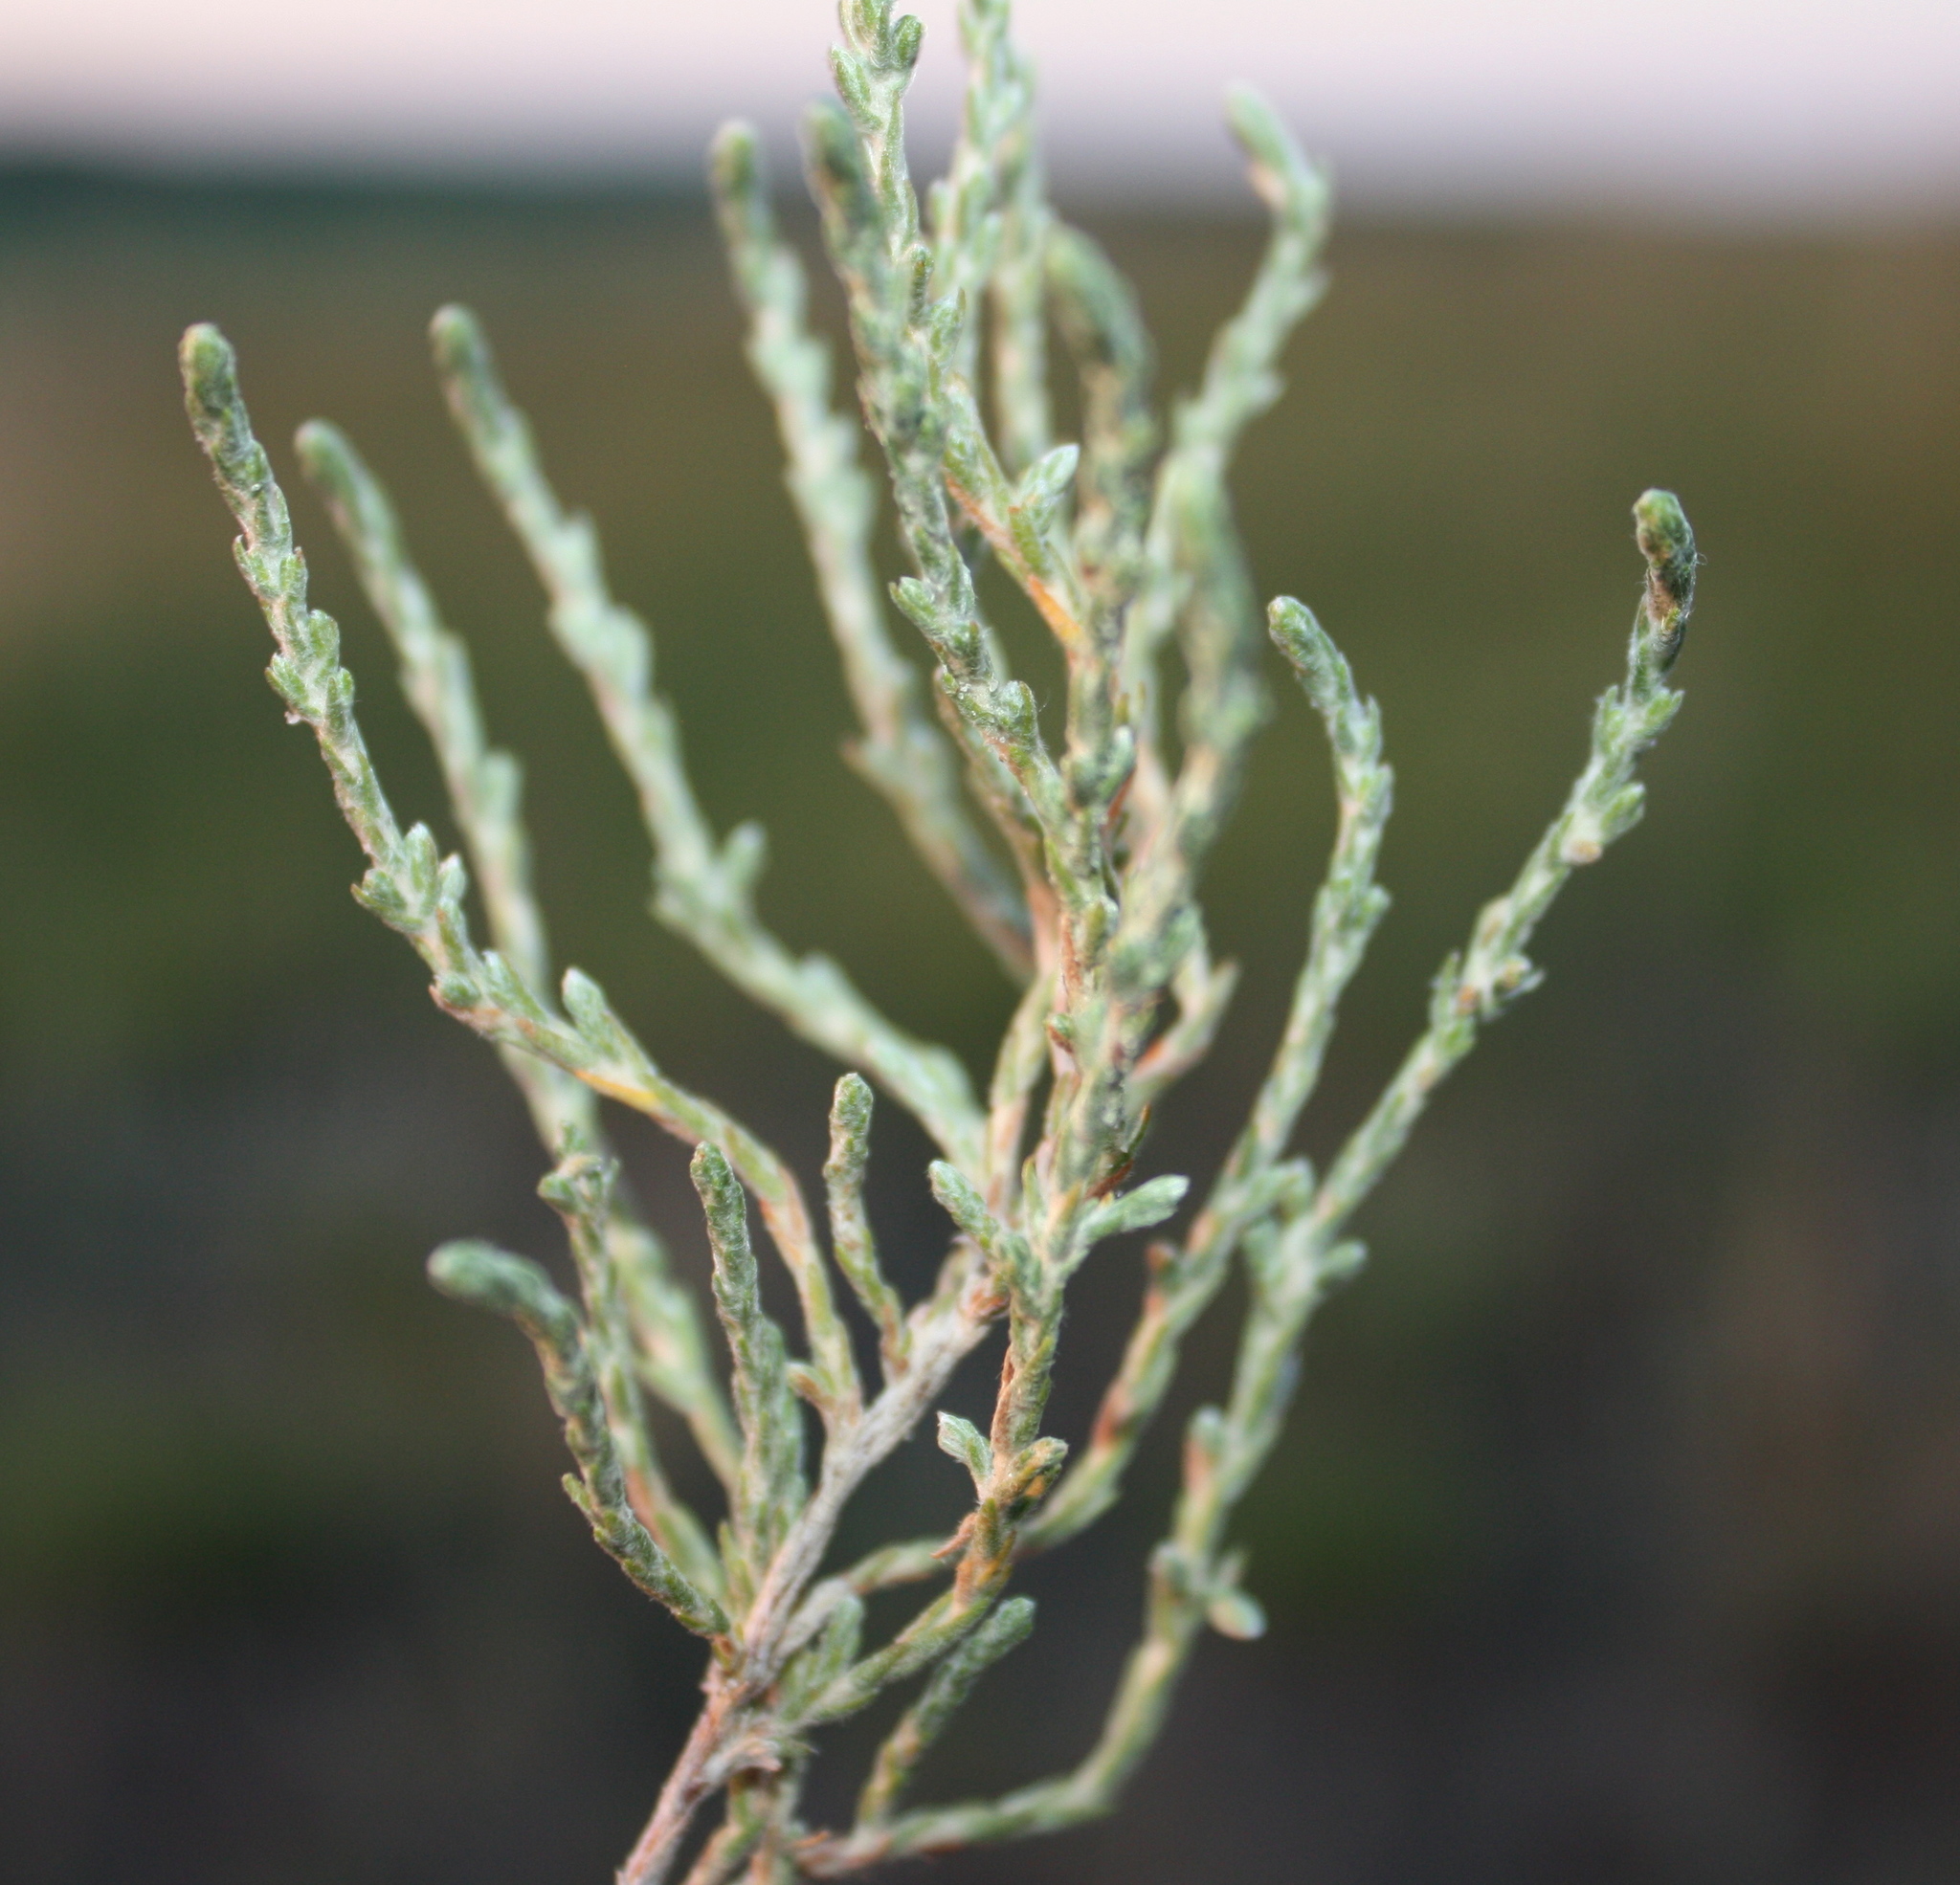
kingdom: Plantae
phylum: Tracheophyta
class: Magnoliopsida
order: Malvales
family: Cistaceae
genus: Hudsonia
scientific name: Hudsonia tomentosa
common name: Beach-heath
